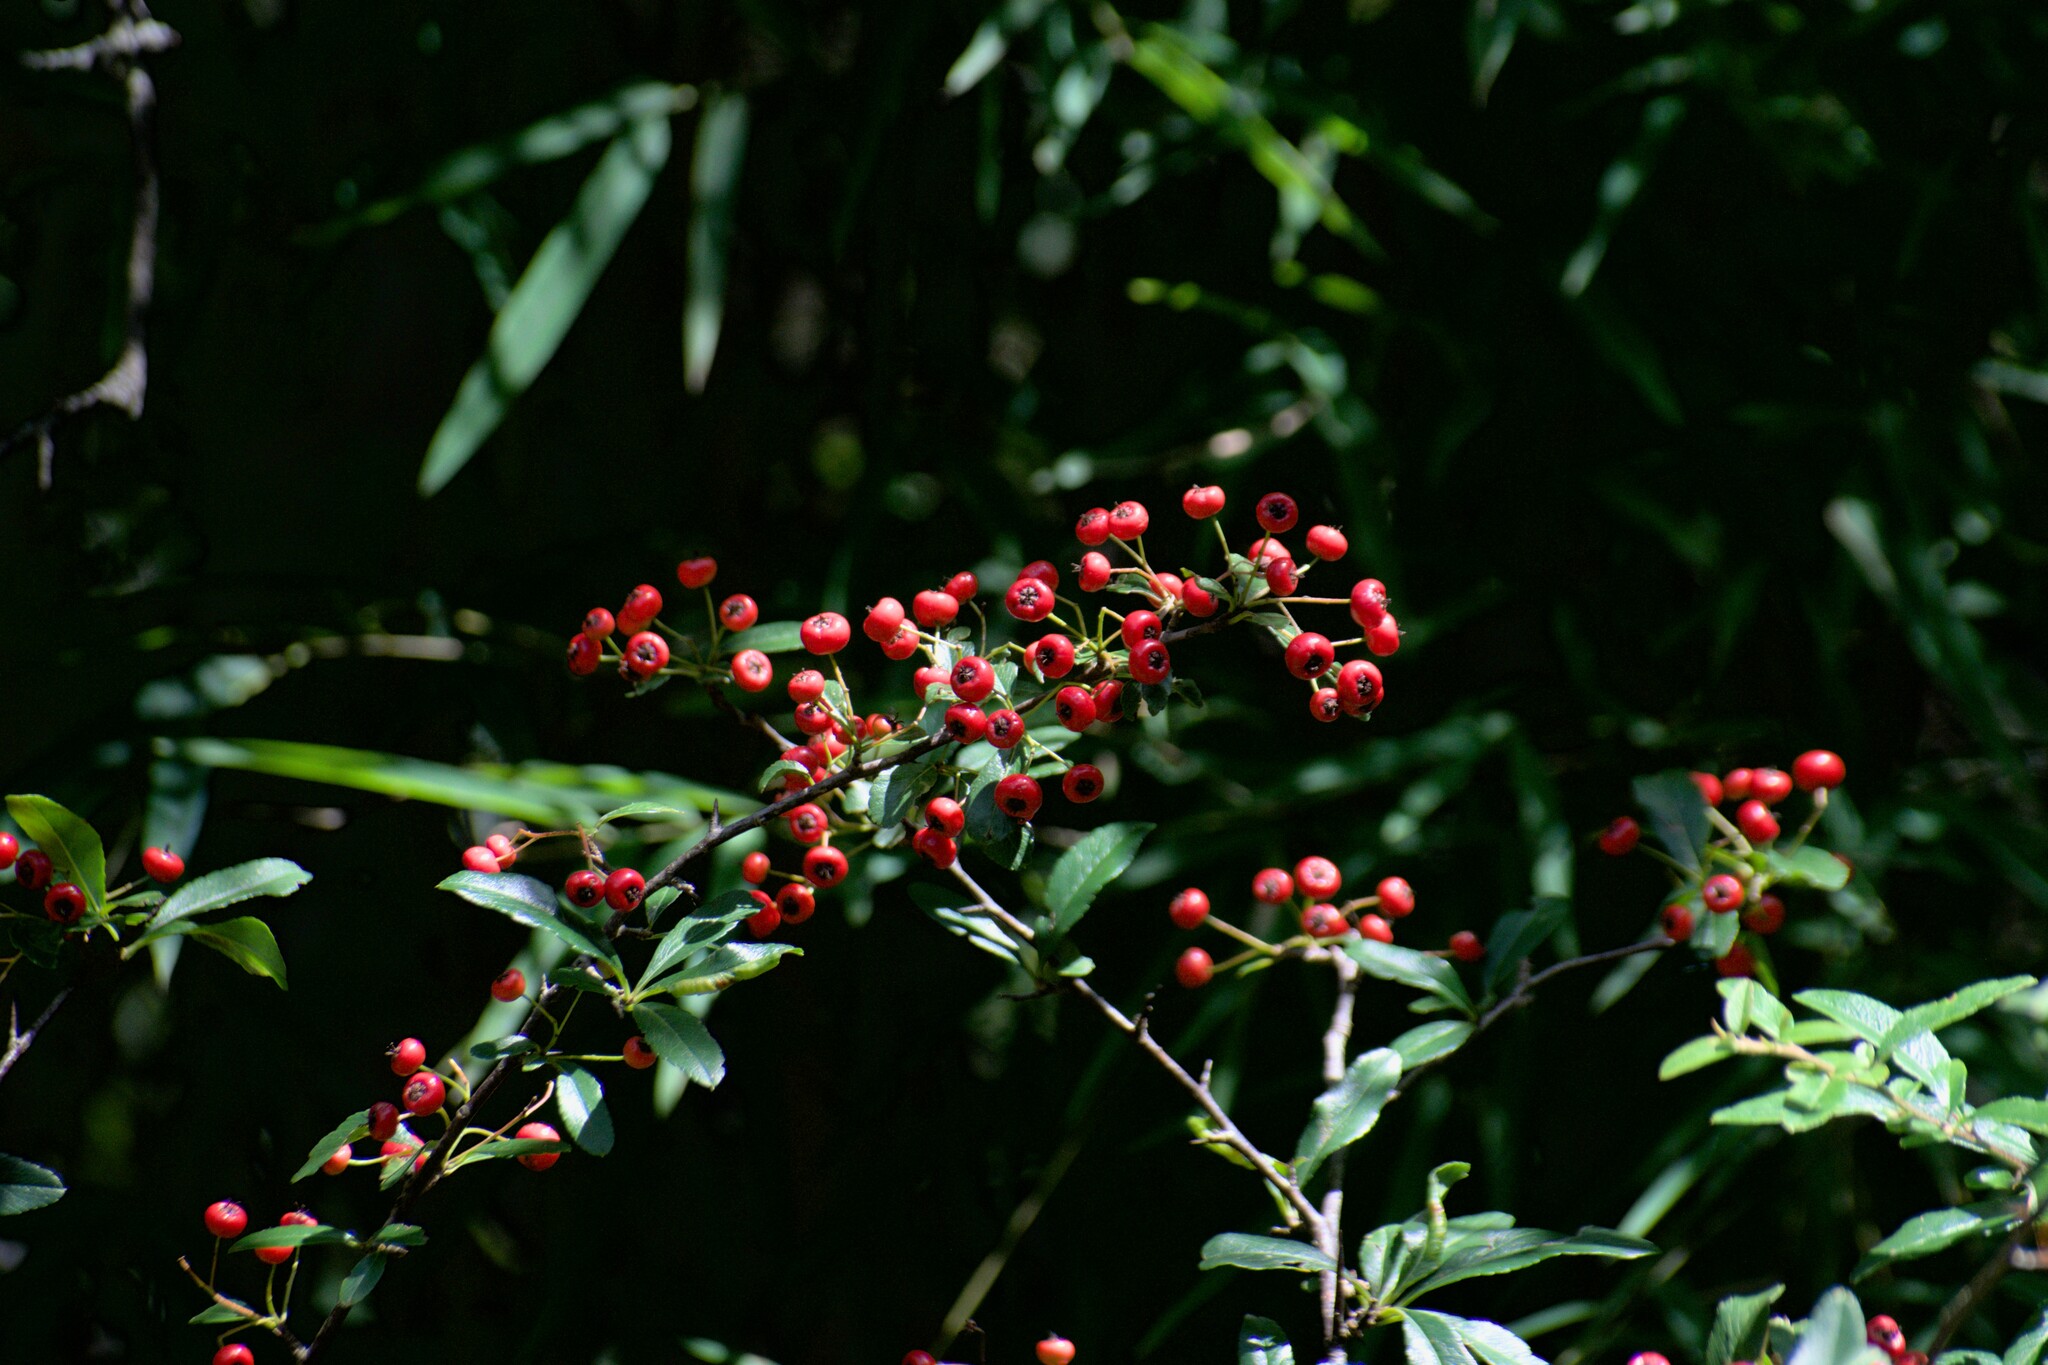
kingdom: Plantae
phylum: Tracheophyta
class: Magnoliopsida
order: Rosales
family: Rosaceae
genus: Pyracantha
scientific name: Pyracantha crenulata
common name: Nepalese firethorn
